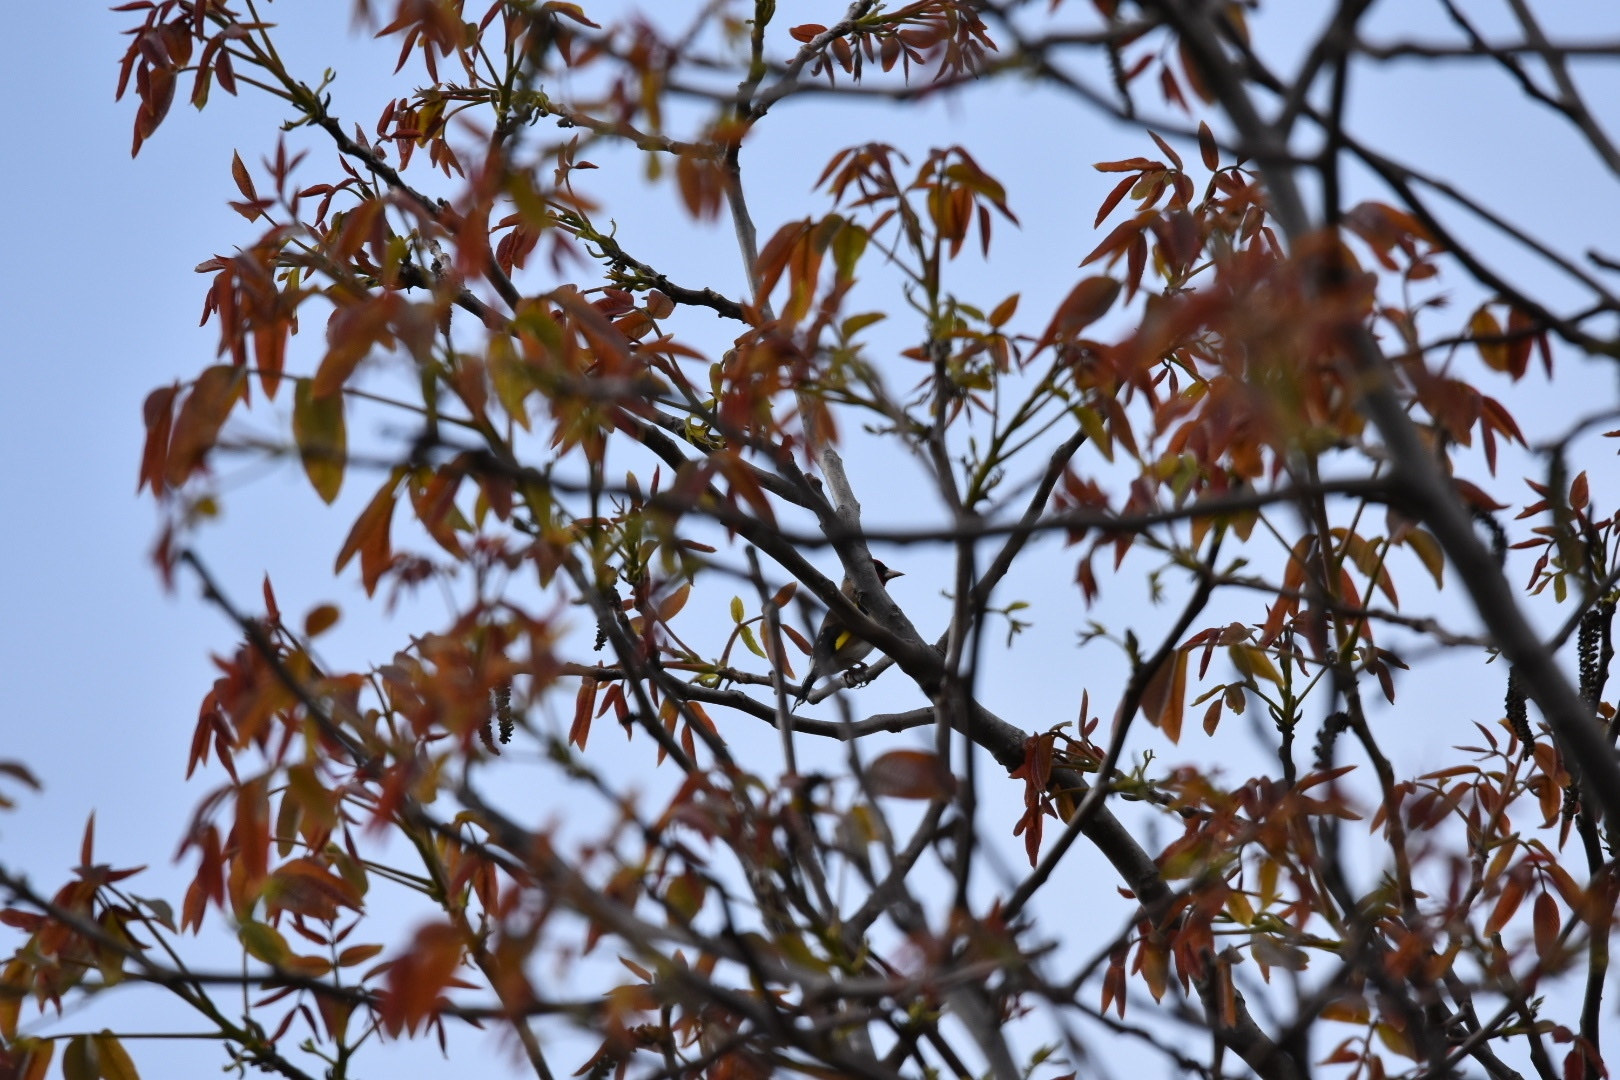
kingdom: Animalia
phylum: Chordata
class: Aves
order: Passeriformes
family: Fringillidae
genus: Carduelis
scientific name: Carduelis carduelis
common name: European goldfinch
